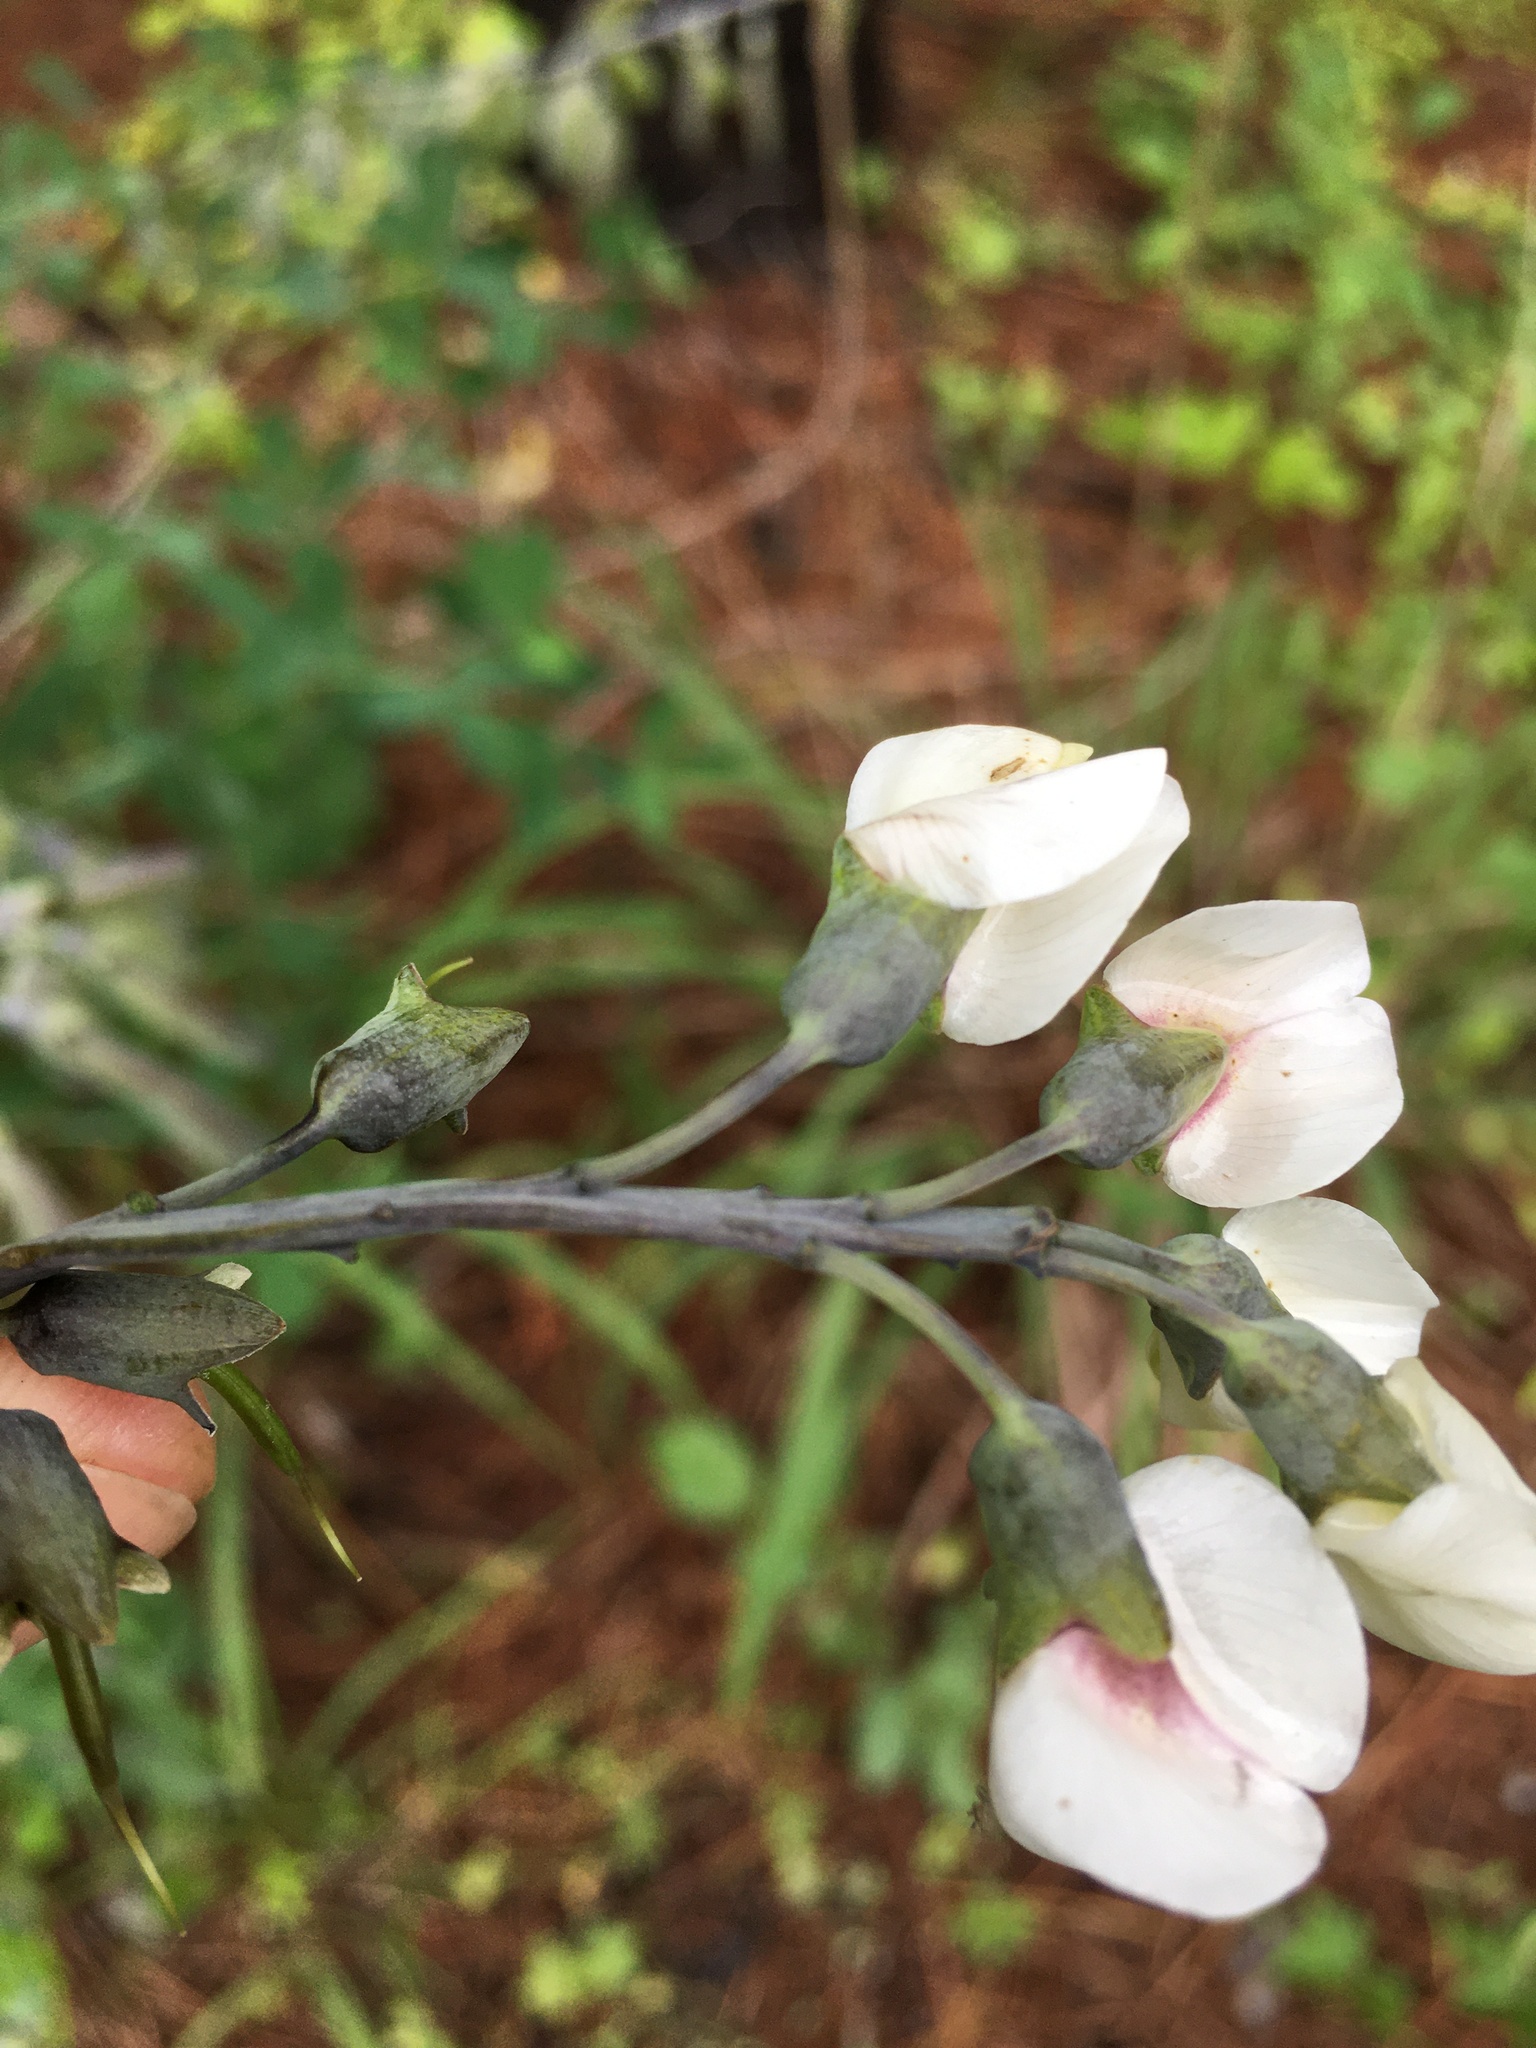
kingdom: Plantae
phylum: Tracheophyta
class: Magnoliopsida
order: Fabales
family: Fabaceae
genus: Baptisia
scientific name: Baptisia alba
